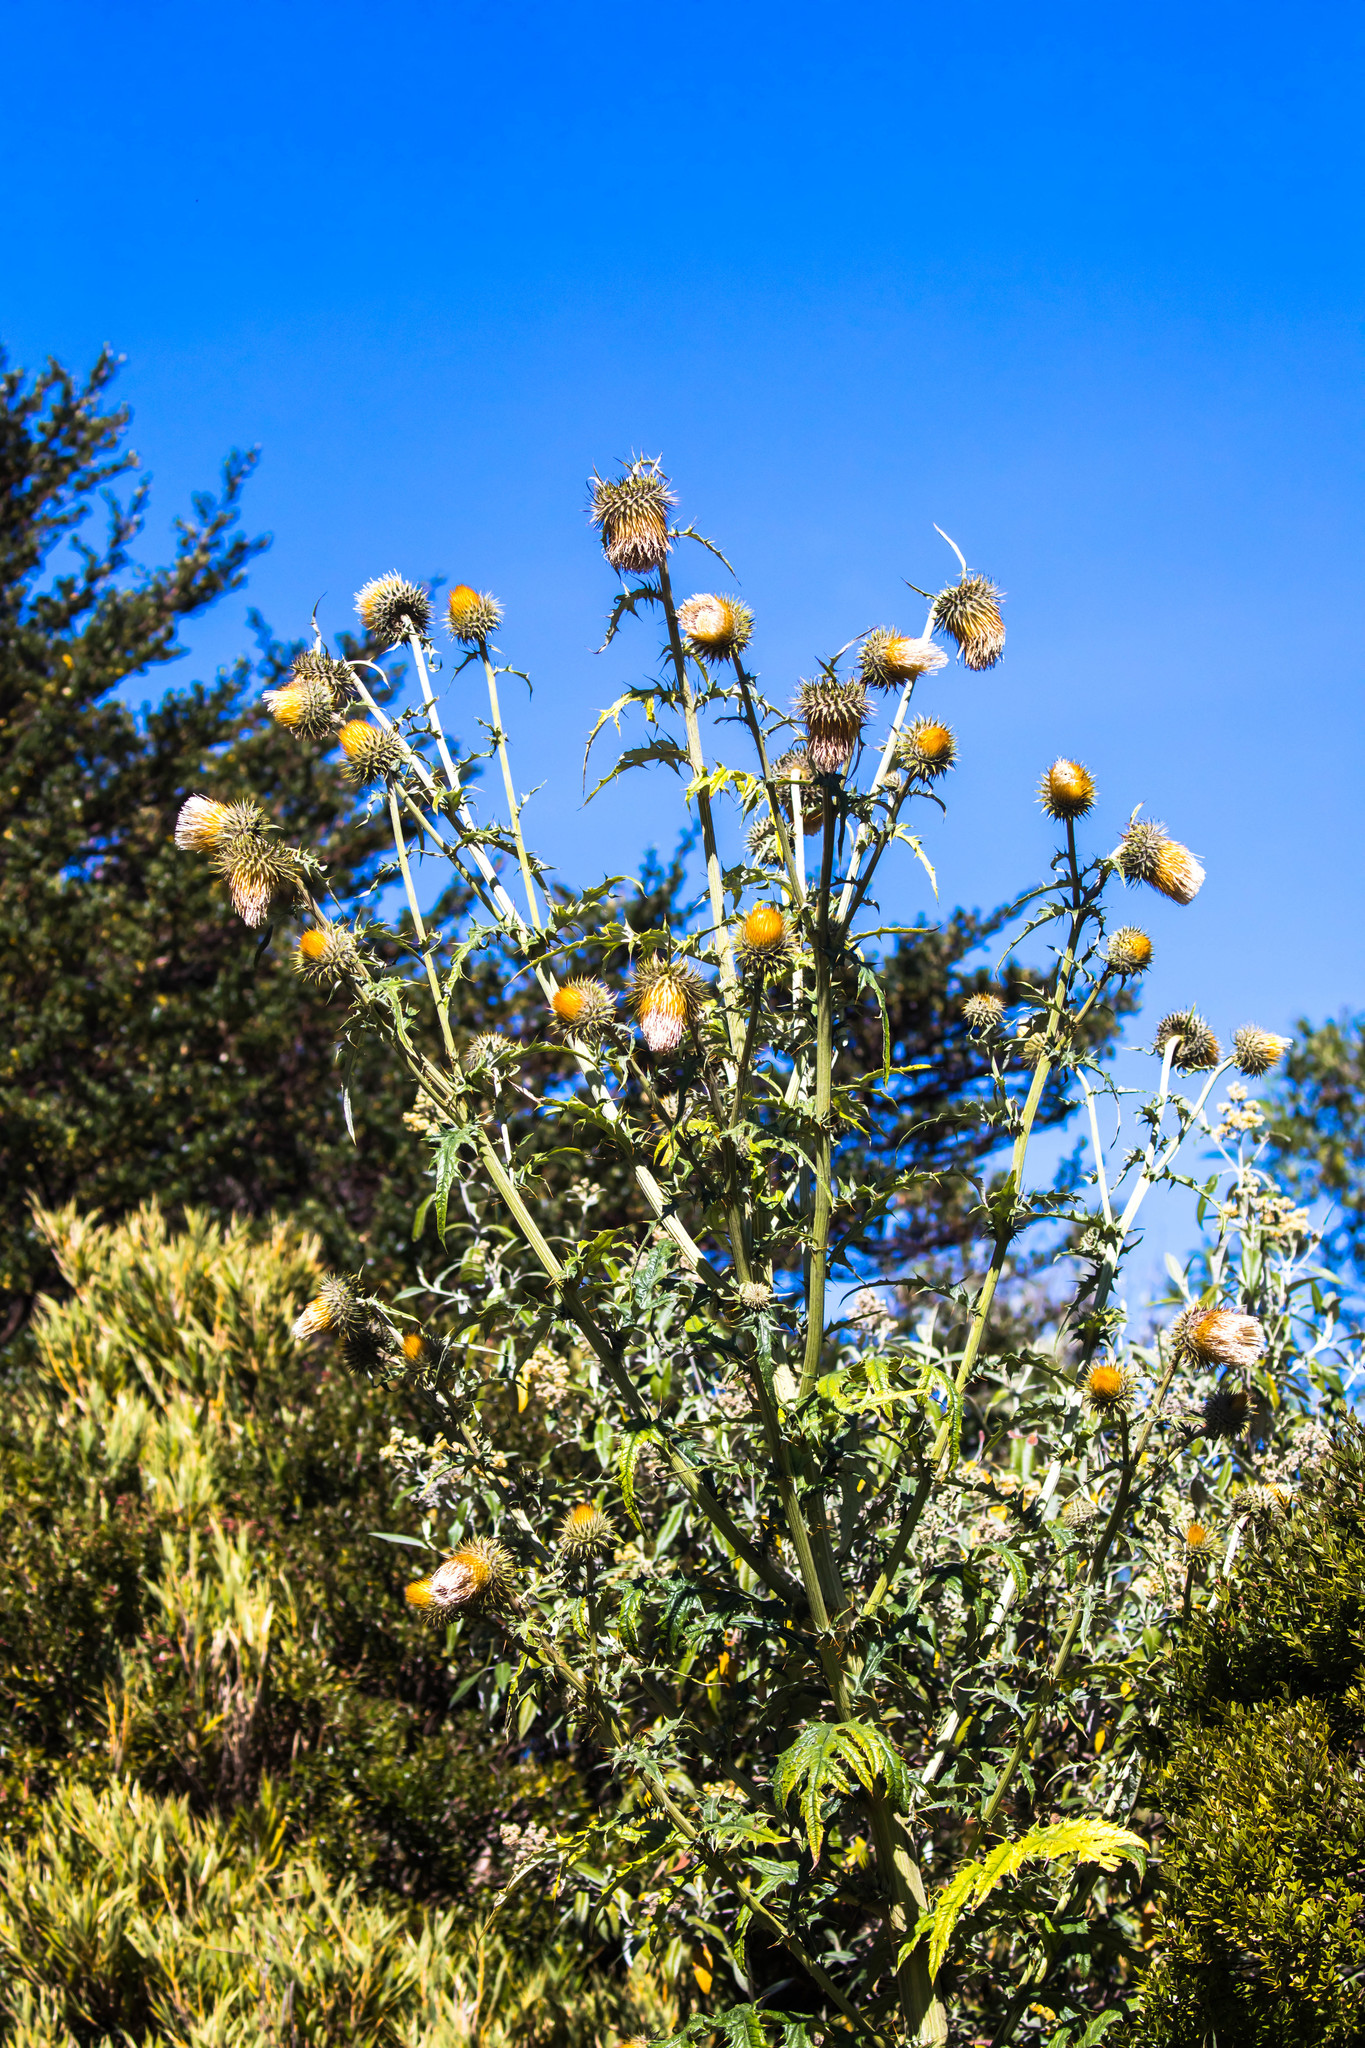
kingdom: Plantae
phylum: Tracheophyta
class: Magnoliopsida
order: Asterales
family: Asteraceae
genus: Cirsium
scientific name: Cirsium subcoriaceum
